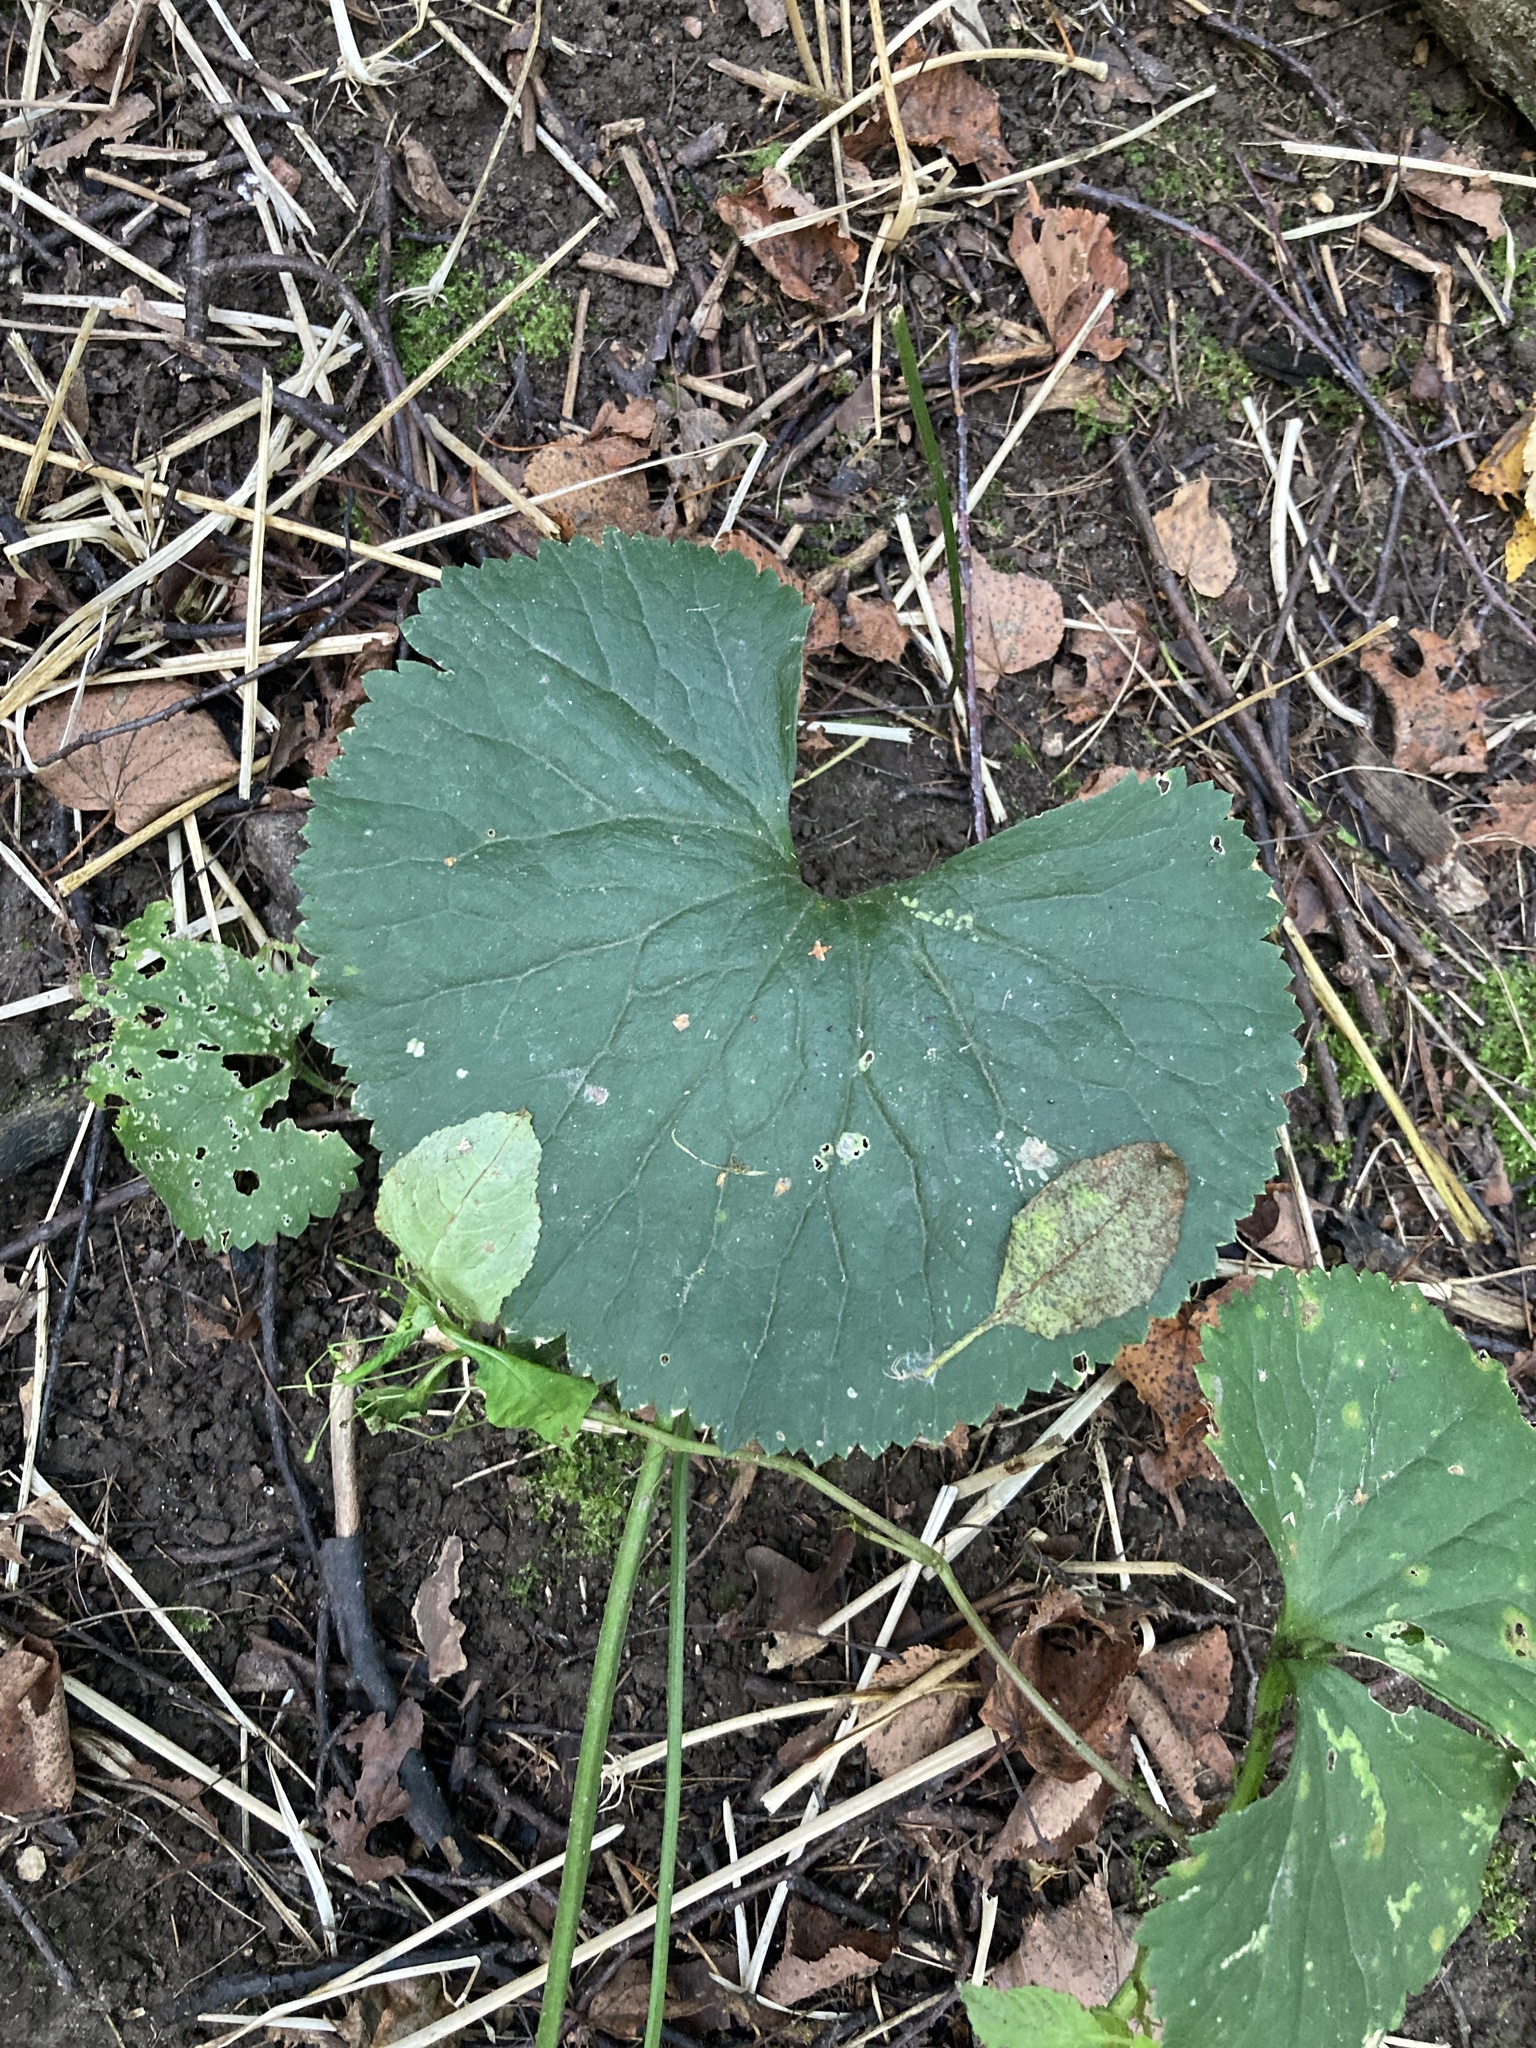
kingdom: Plantae
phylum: Tracheophyta
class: Magnoliopsida
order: Ranunculales
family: Ranunculaceae
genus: Ranunculus
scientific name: Ranunculus cassubicus
